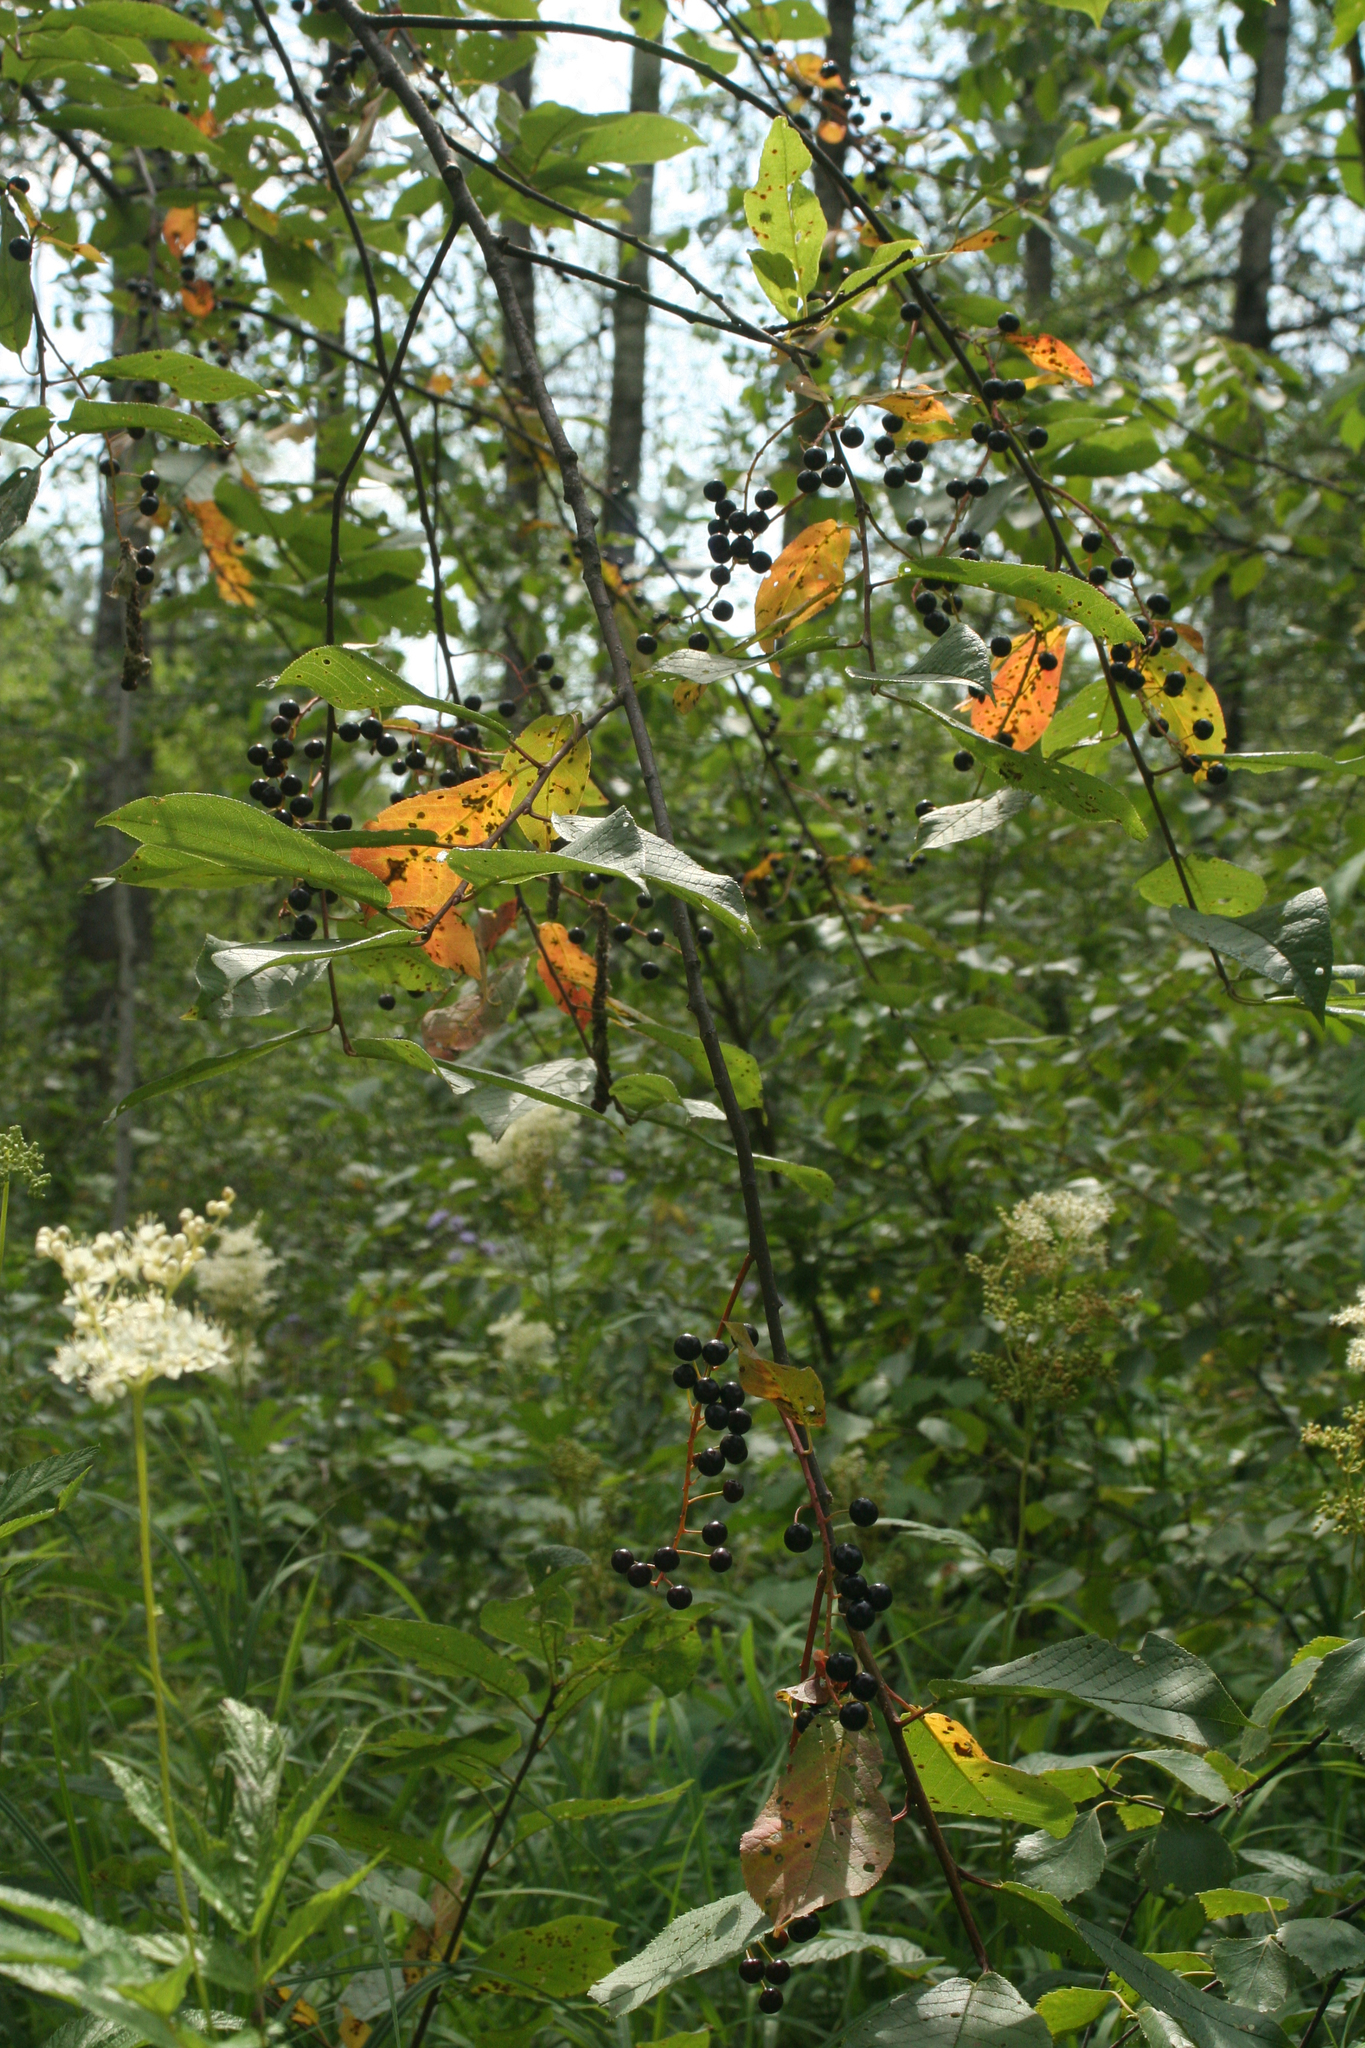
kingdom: Plantae
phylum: Tracheophyta
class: Magnoliopsida
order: Rosales
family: Rosaceae
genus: Prunus
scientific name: Prunus padus
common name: Bird cherry
